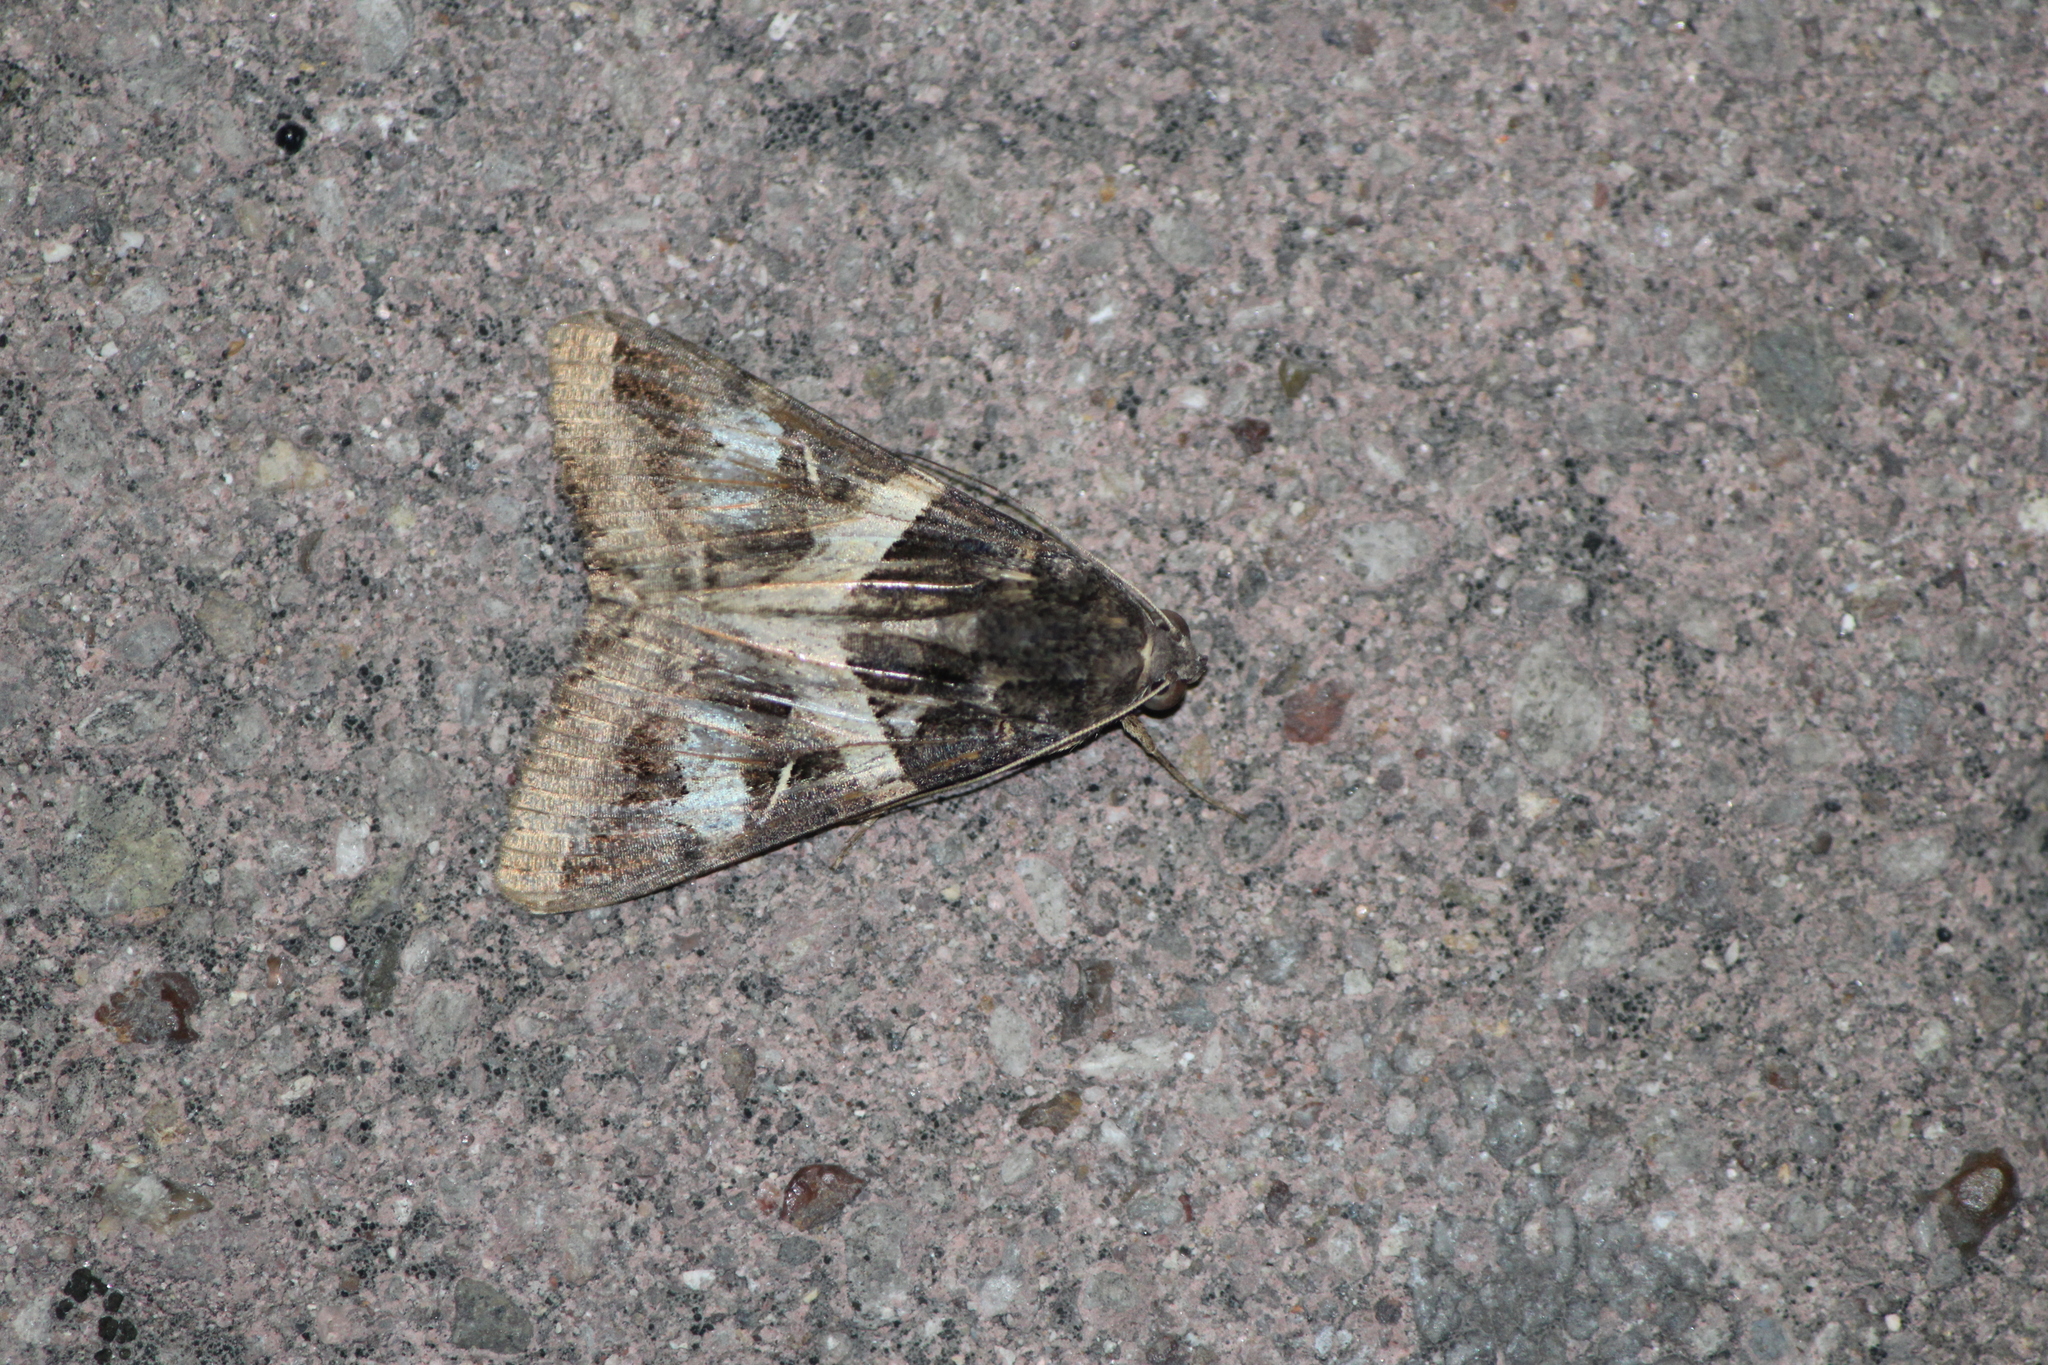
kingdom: Animalia
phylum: Arthropoda
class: Insecta
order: Lepidoptera
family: Erebidae
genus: Melipotis
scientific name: Melipotis indomita
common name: Moth
